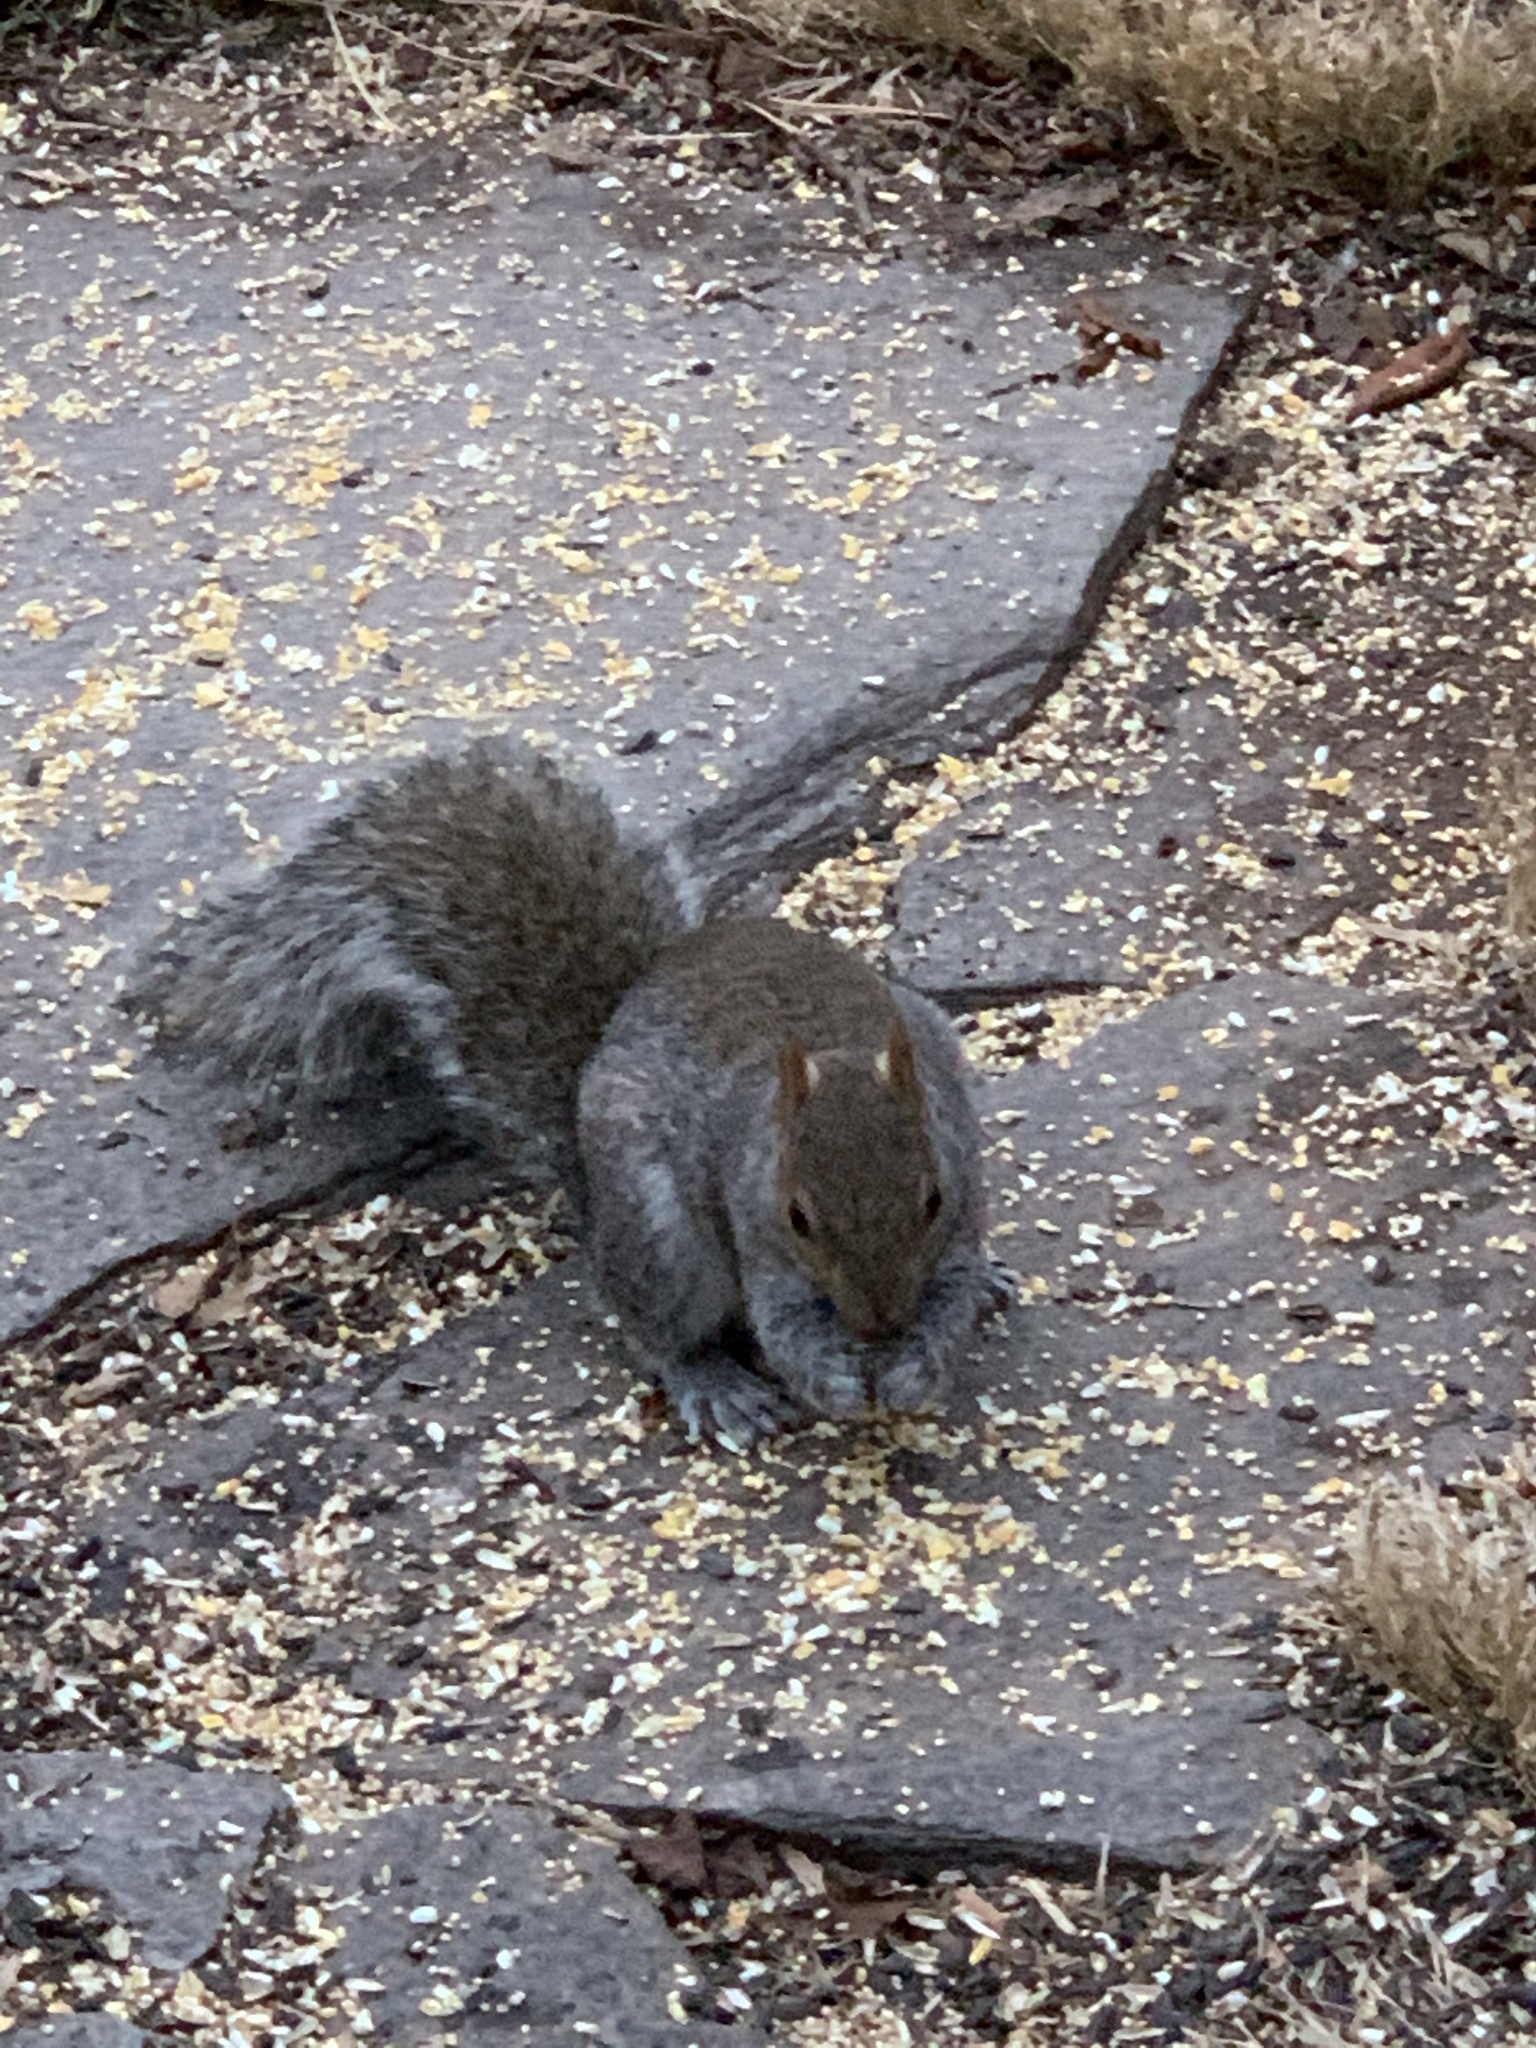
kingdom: Animalia
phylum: Chordata
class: Mammalia
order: Rodentia
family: Sciuridae
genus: Sciurus
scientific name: Sciurus carolinensis
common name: Eastern gray squirrel
